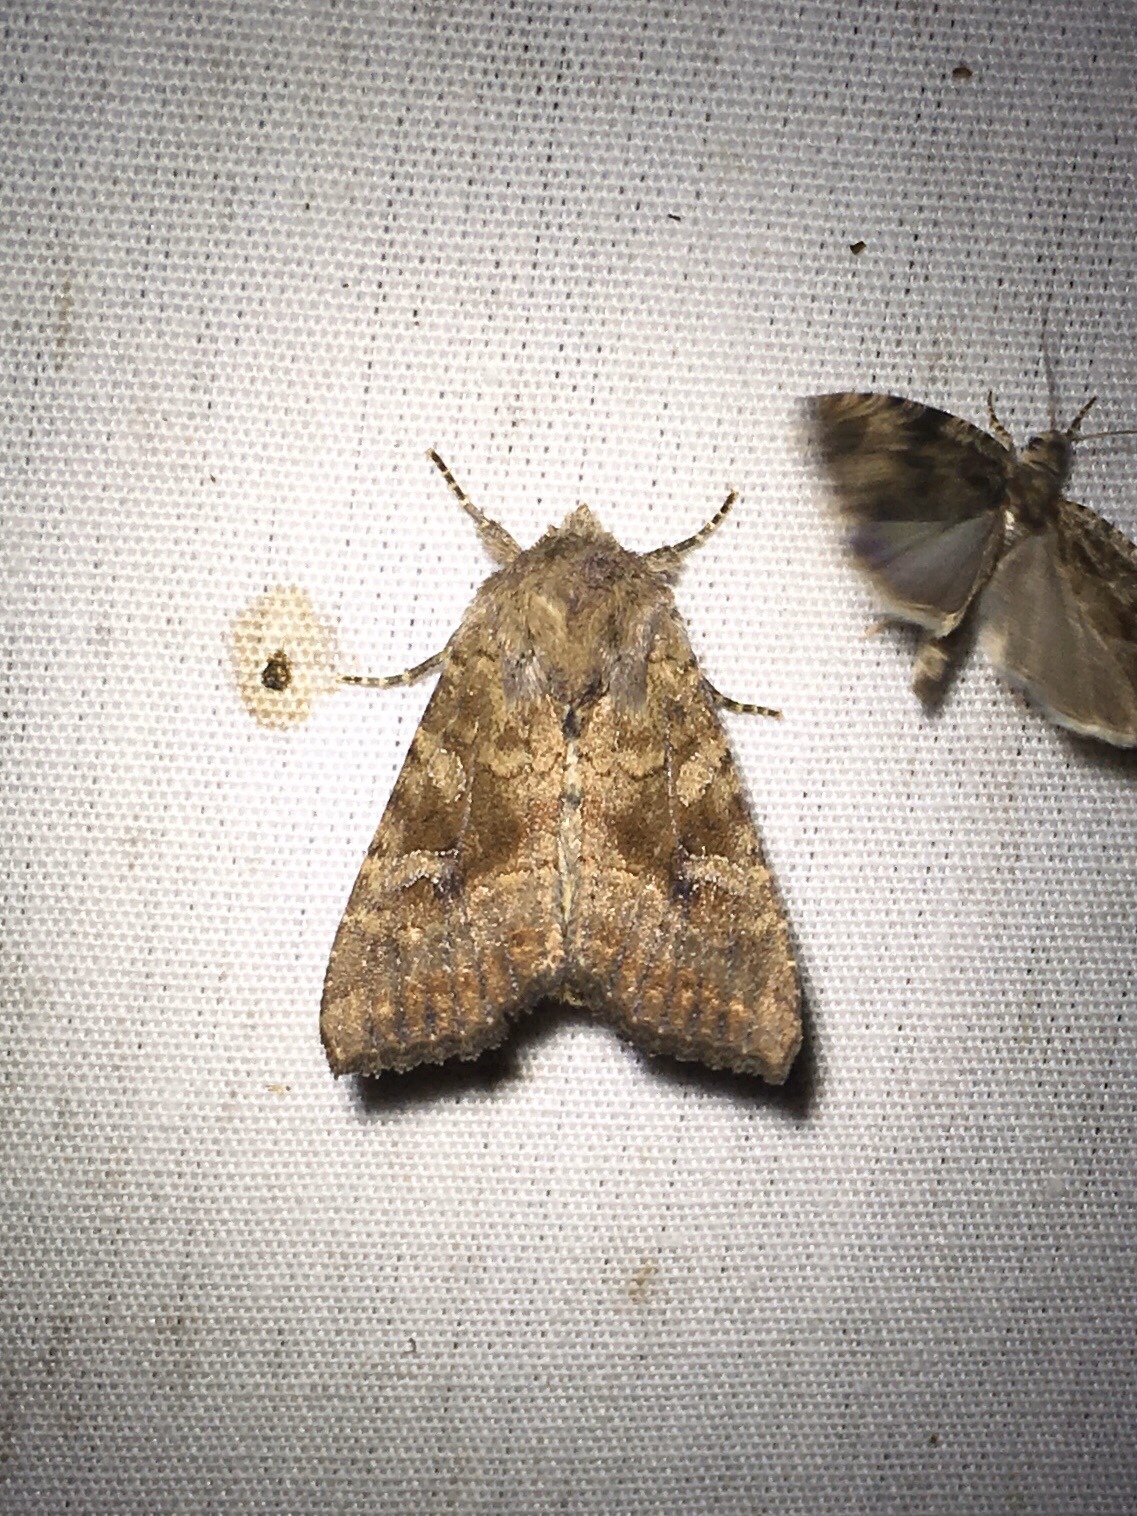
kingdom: Animalia
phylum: Arthropoda
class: Insecta
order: Lepidoptera
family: Noctuidae
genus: Loscopia
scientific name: Loscopia velata
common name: Veiled ear moth
